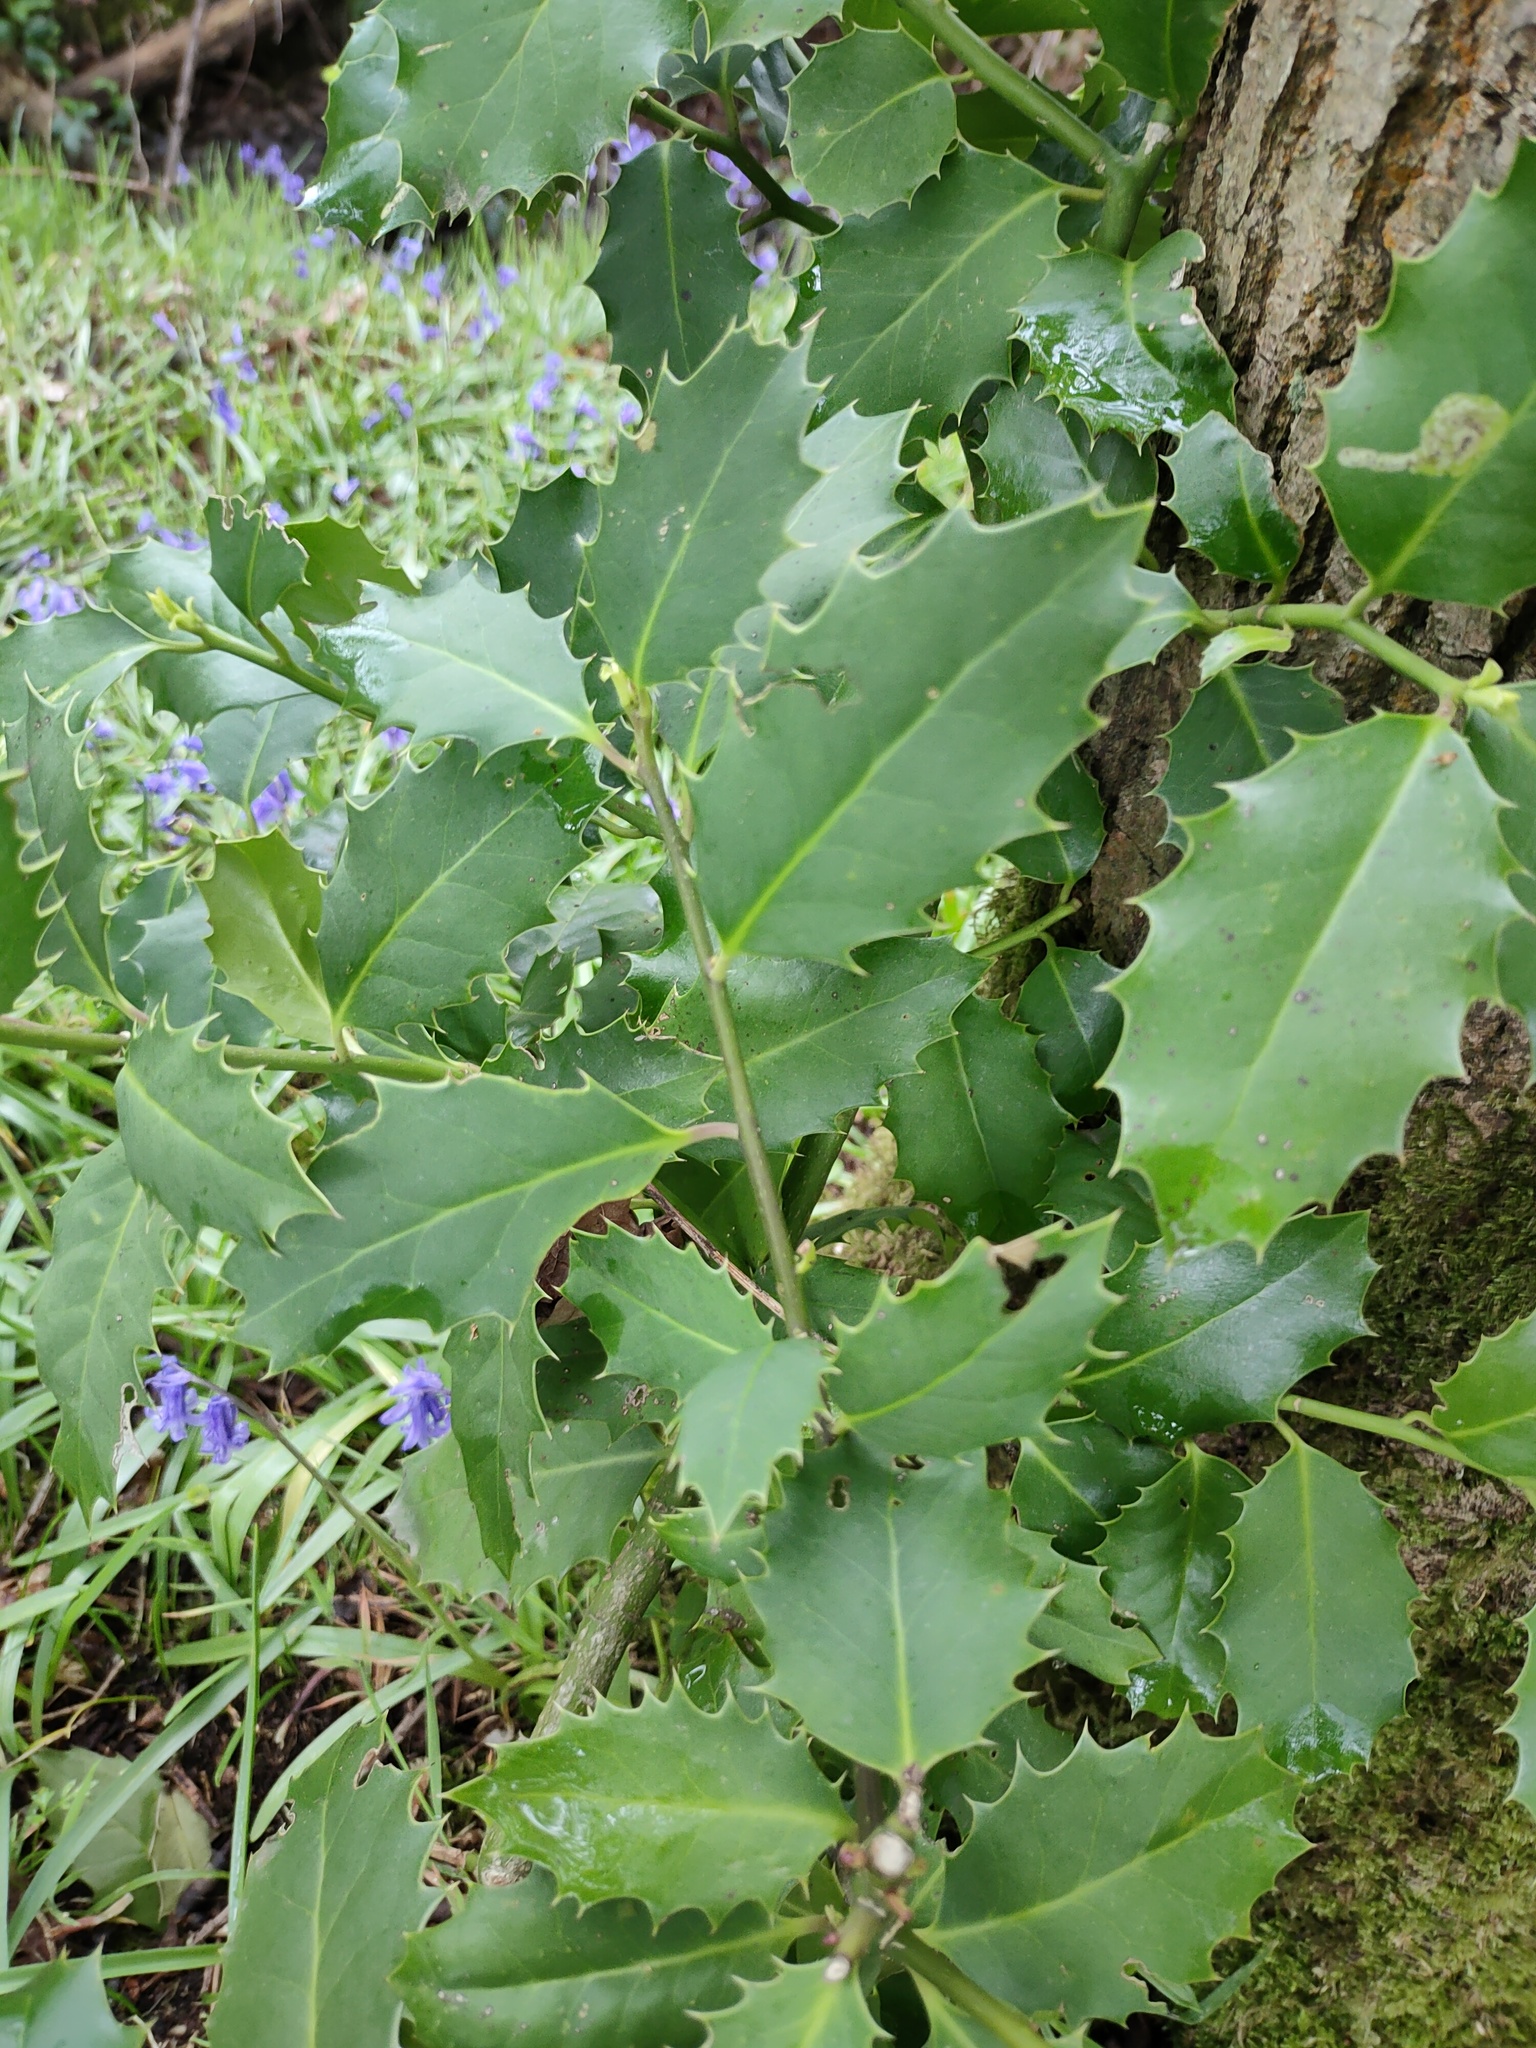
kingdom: Plantae
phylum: Tracheophyta
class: Magnoliopsida
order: Aquifoliales
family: Aquifoliaceae
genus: Ilex
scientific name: Ilex aquifolium
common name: English holly
